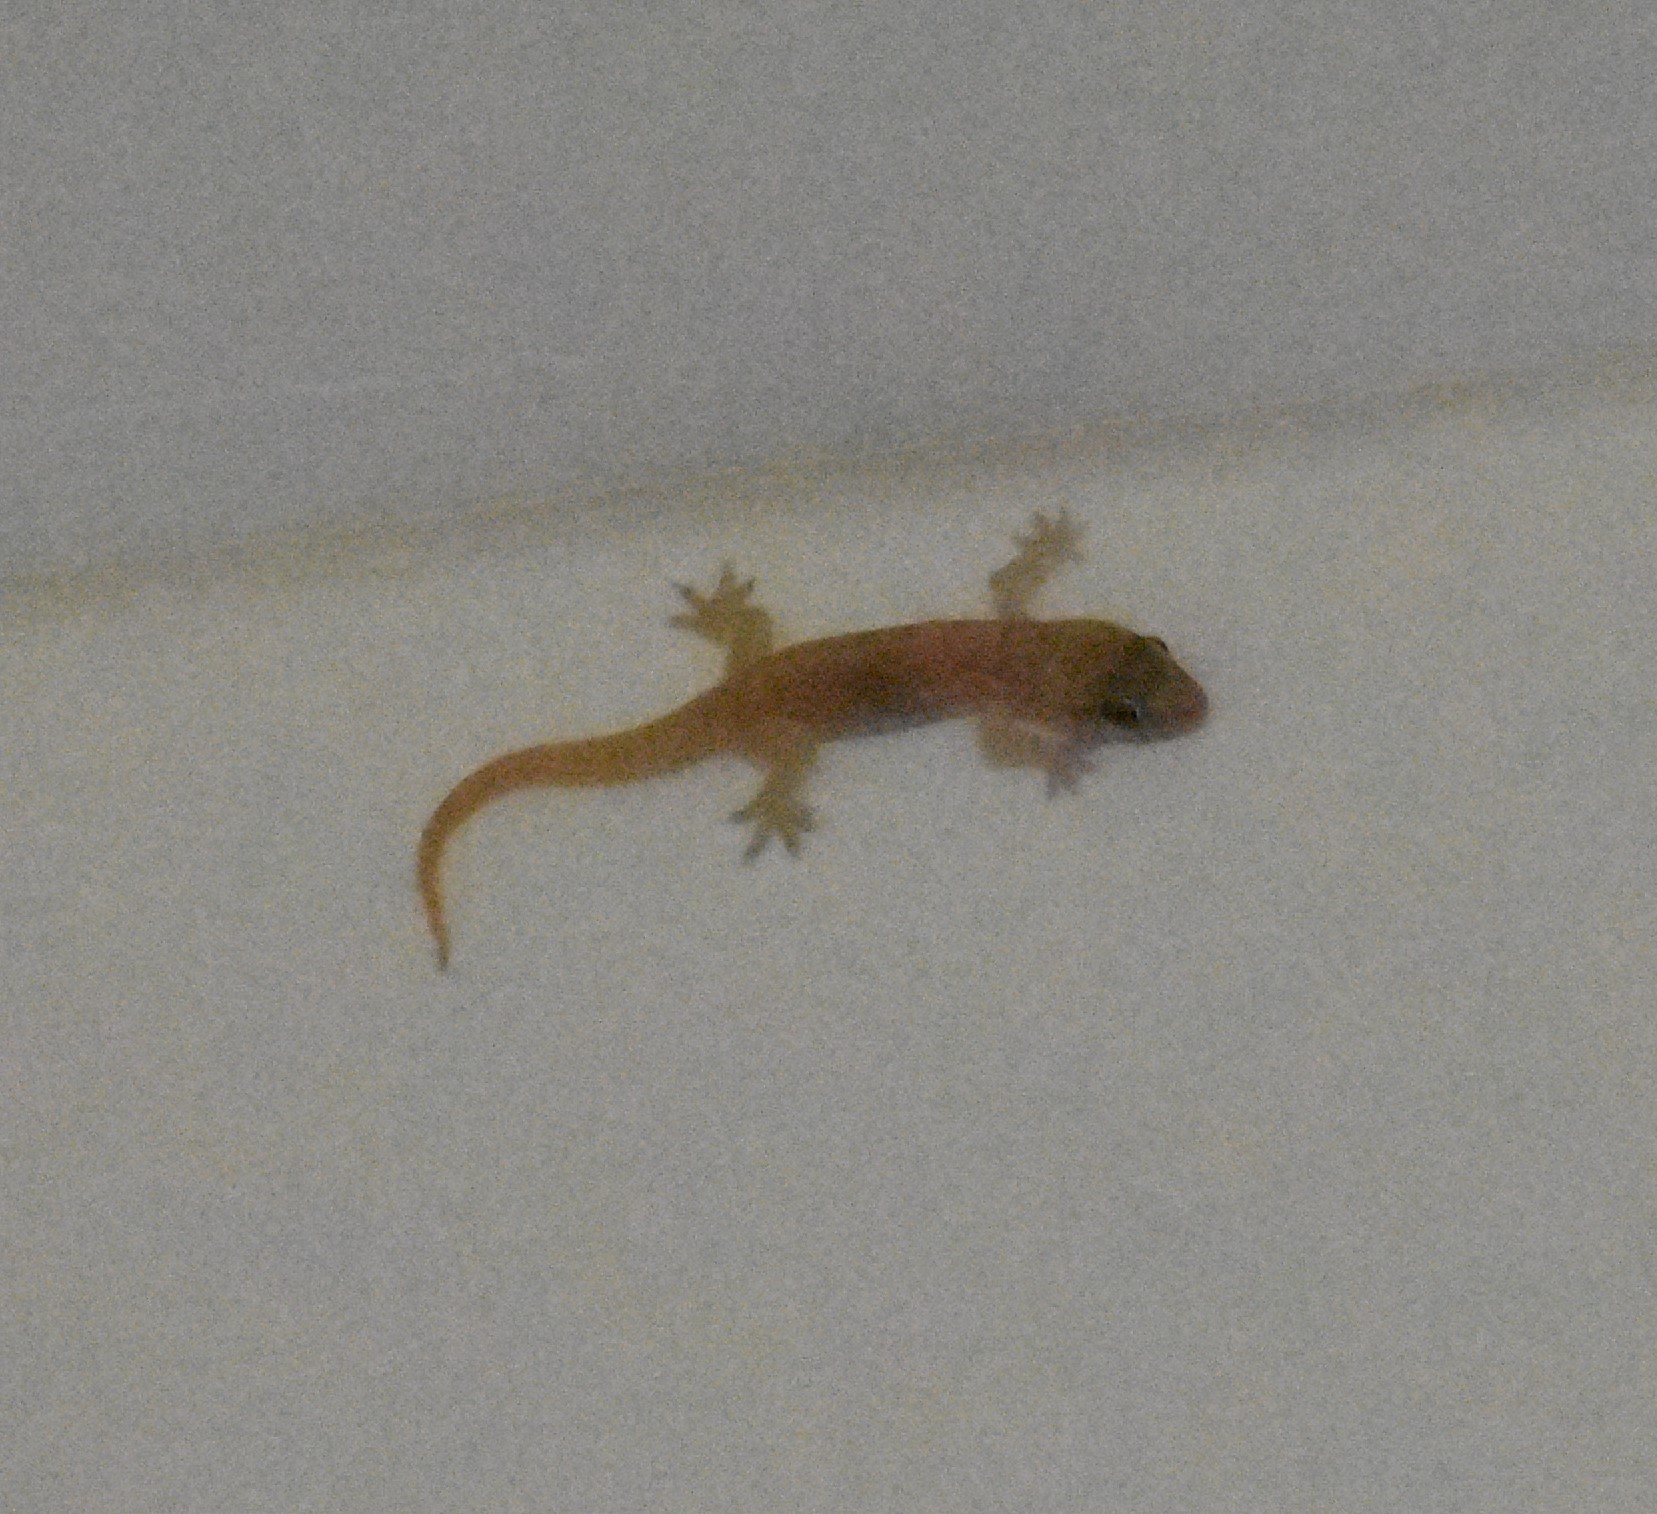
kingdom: Animalia
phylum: Chordata
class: Squamata
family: Gekkonidae
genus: Hemidactylus
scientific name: Hemidactylus flaviviridis
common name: Northern house gecko
